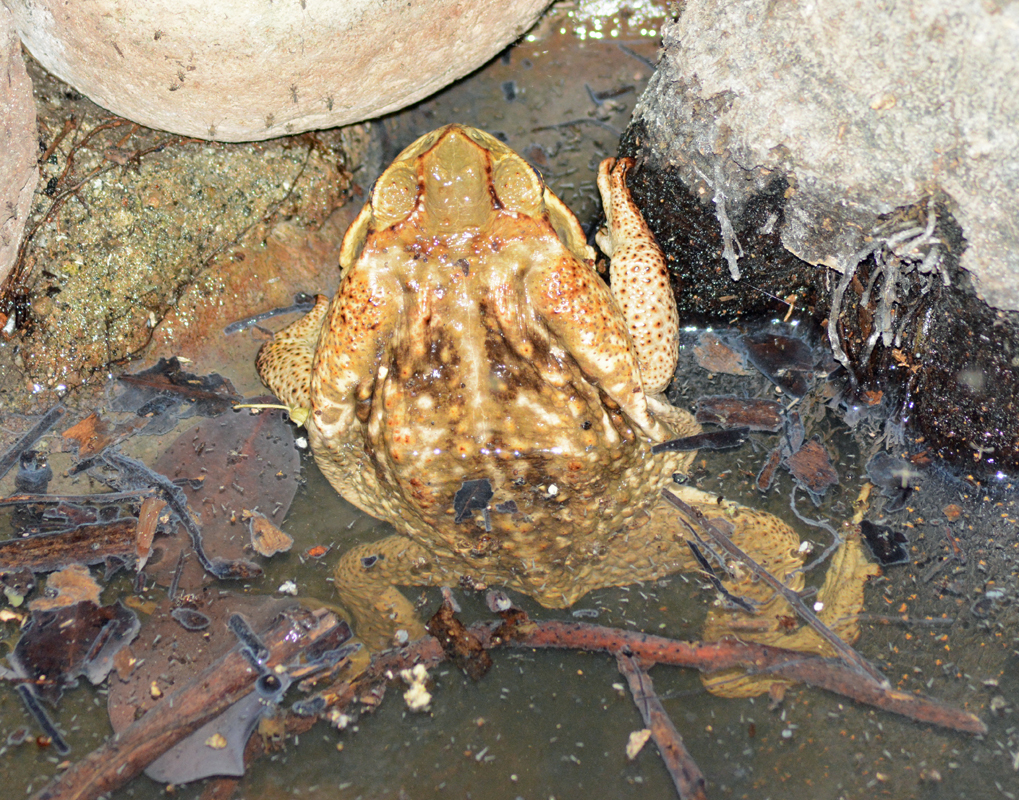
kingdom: Animalia
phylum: Chordata
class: Amphibia
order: Anura
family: Bufonidae
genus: Rhinella
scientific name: Rhinella horribilis
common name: Mesoamerican cane toad
